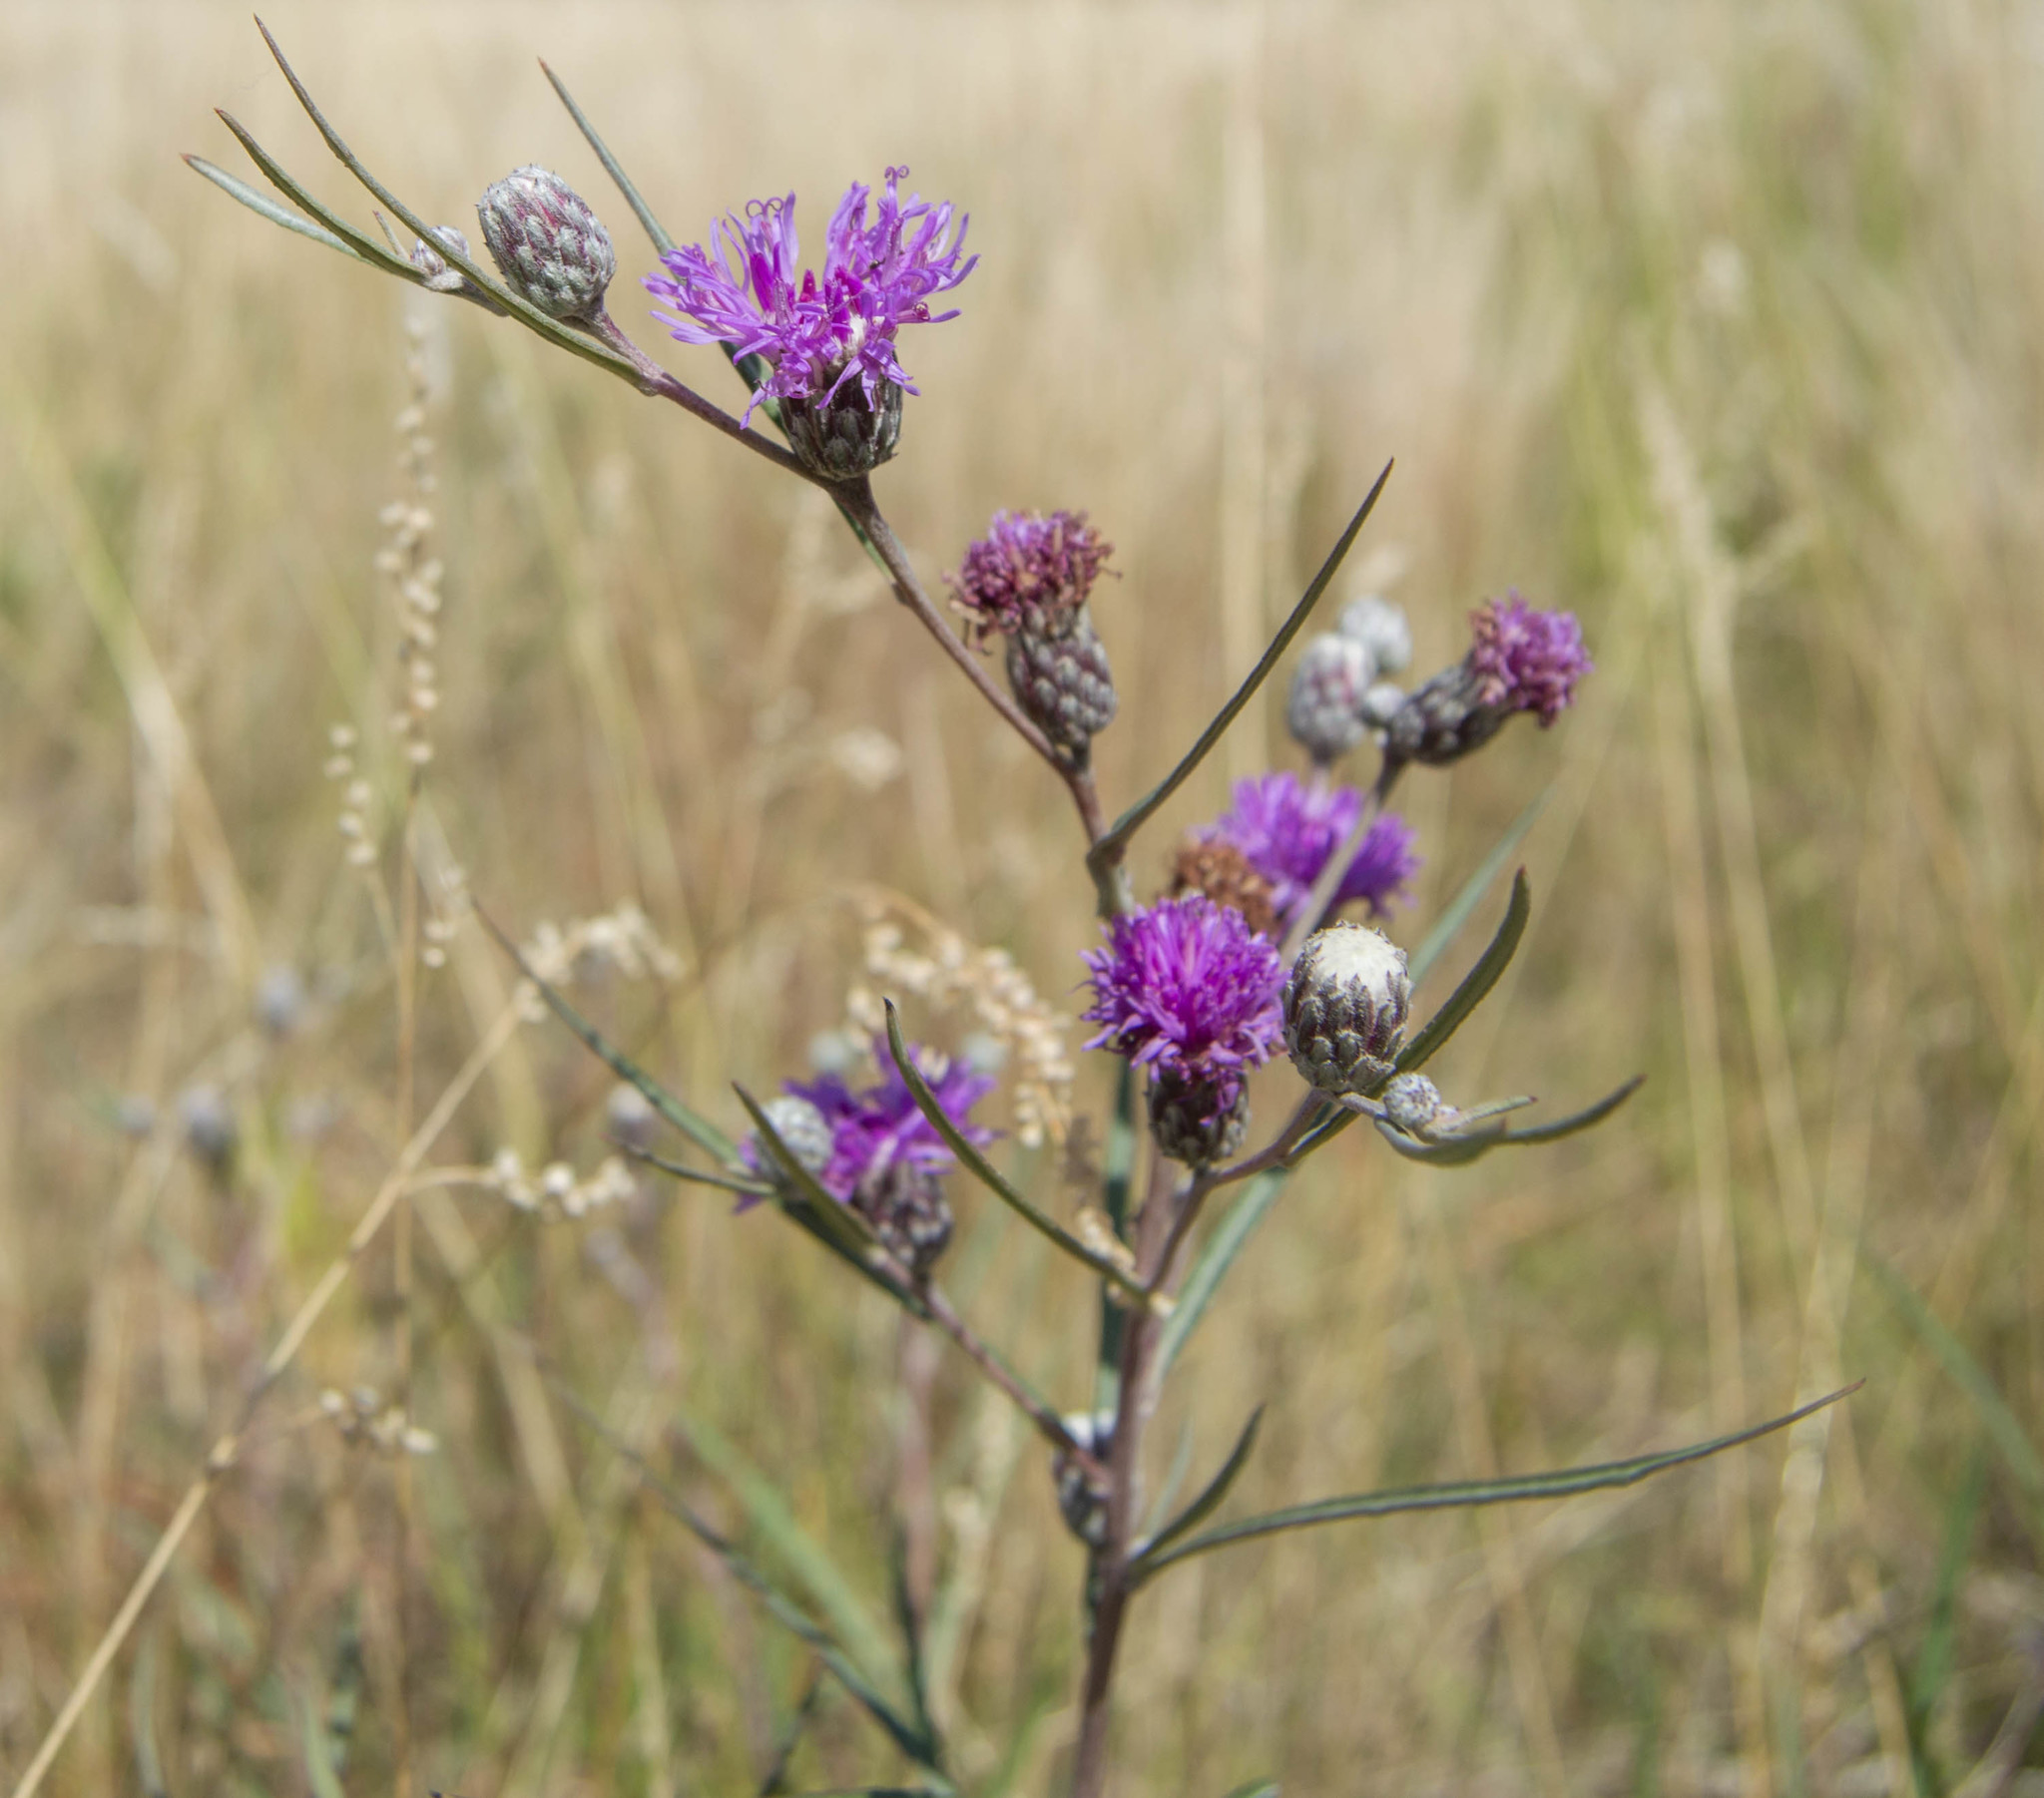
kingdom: Plantae
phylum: Tracheophyta
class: Magnoliopsida
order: Asterales
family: Asteraceae
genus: Lessingianthus
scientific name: Lessingianthus rubricaulis
